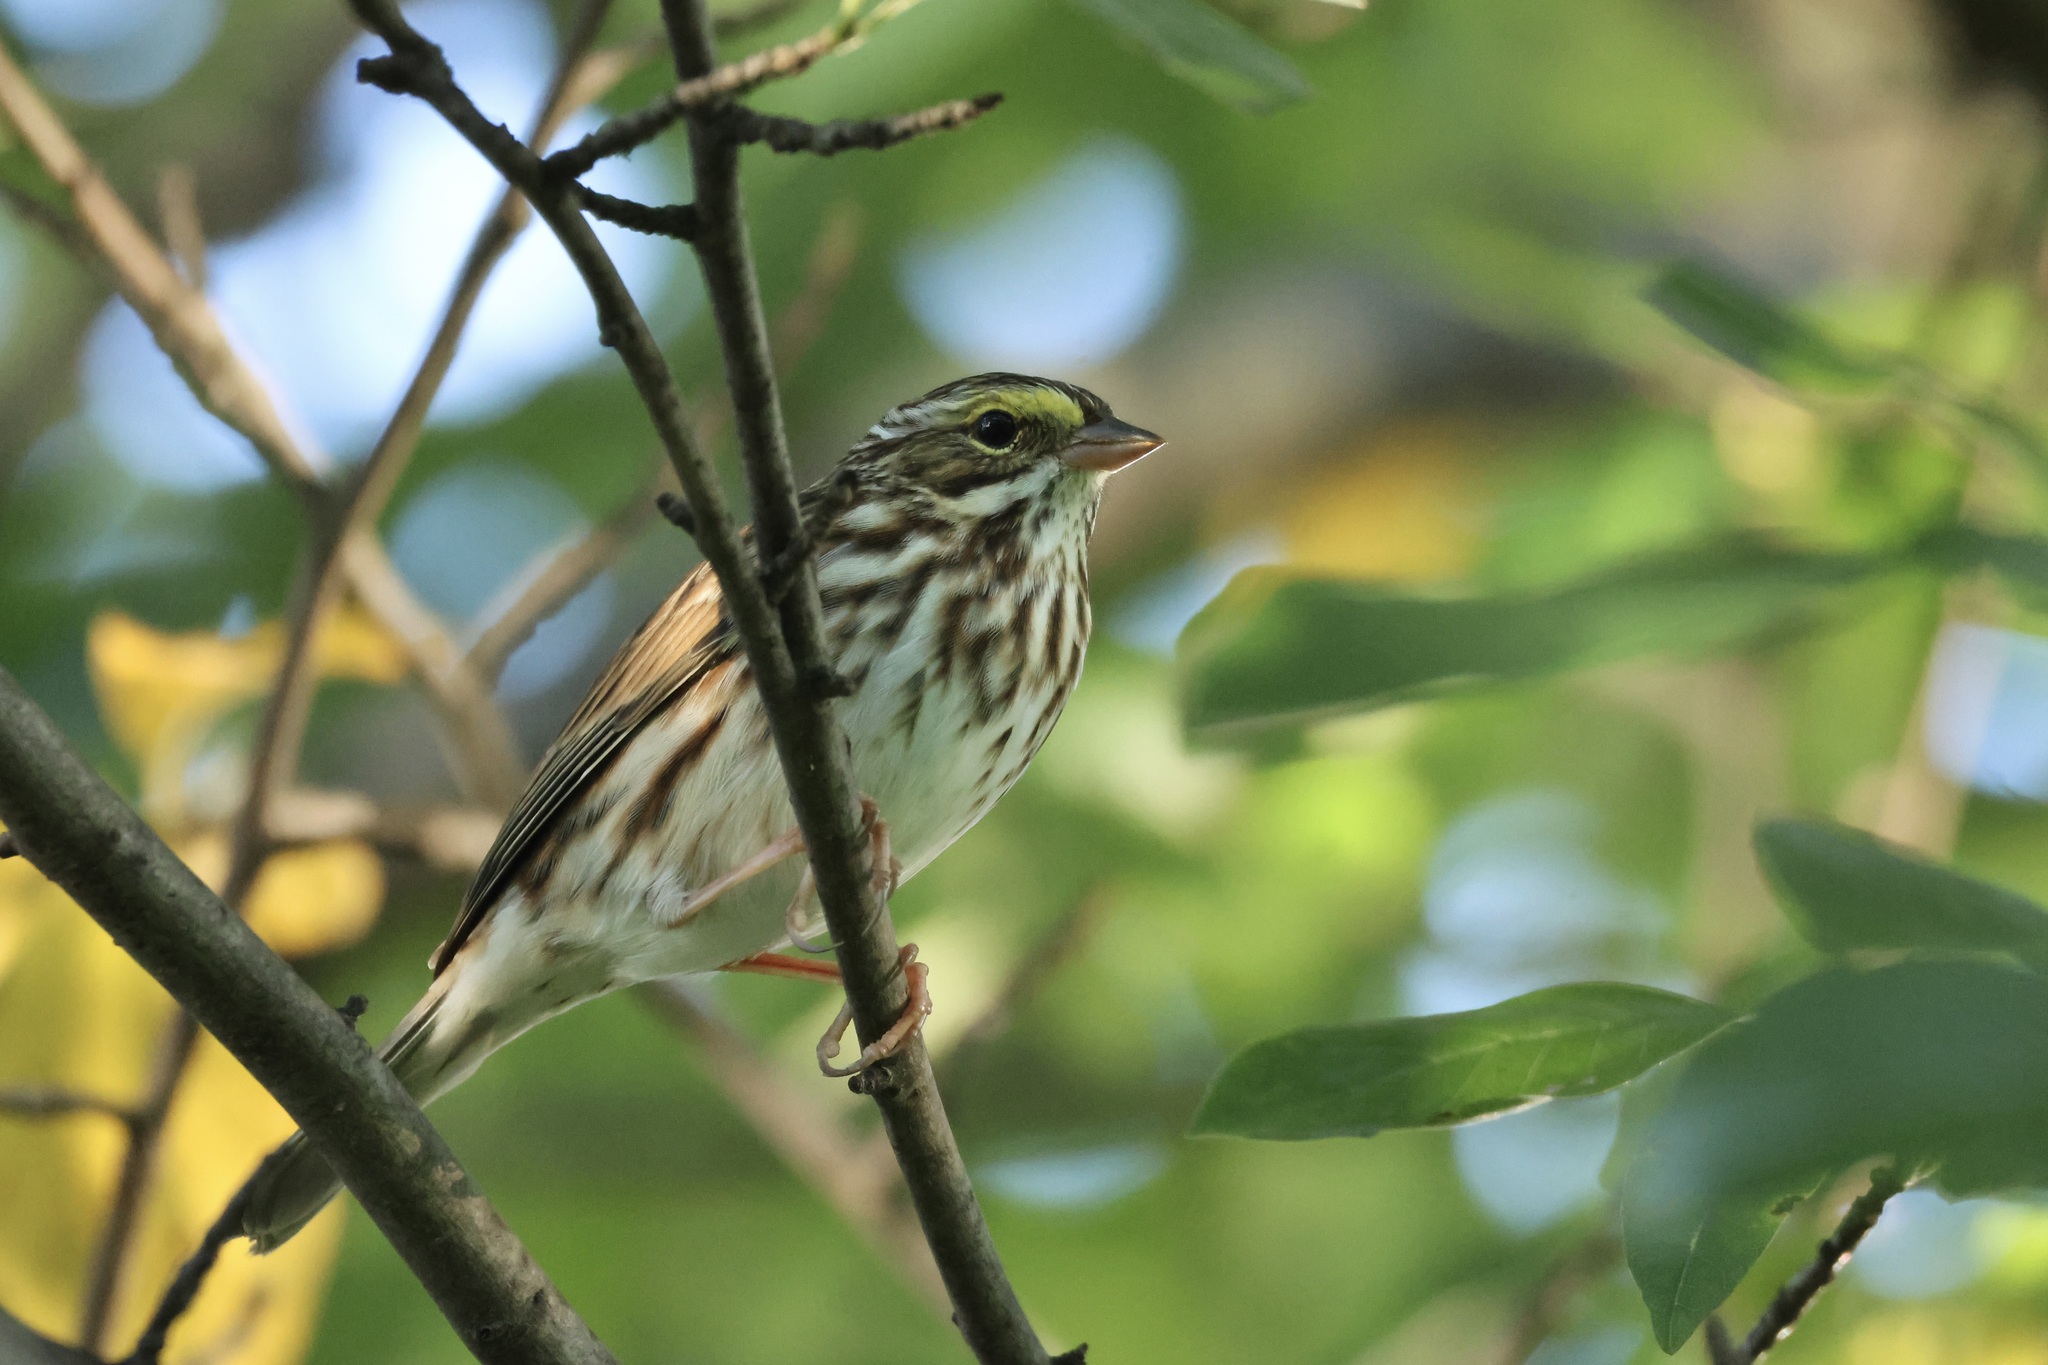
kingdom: Animalia
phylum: Chordata
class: Aves
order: Passeriformes
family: Passerellidae
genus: Passerculus
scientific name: Passerculus sandwichensis
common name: Savannah sparrow
